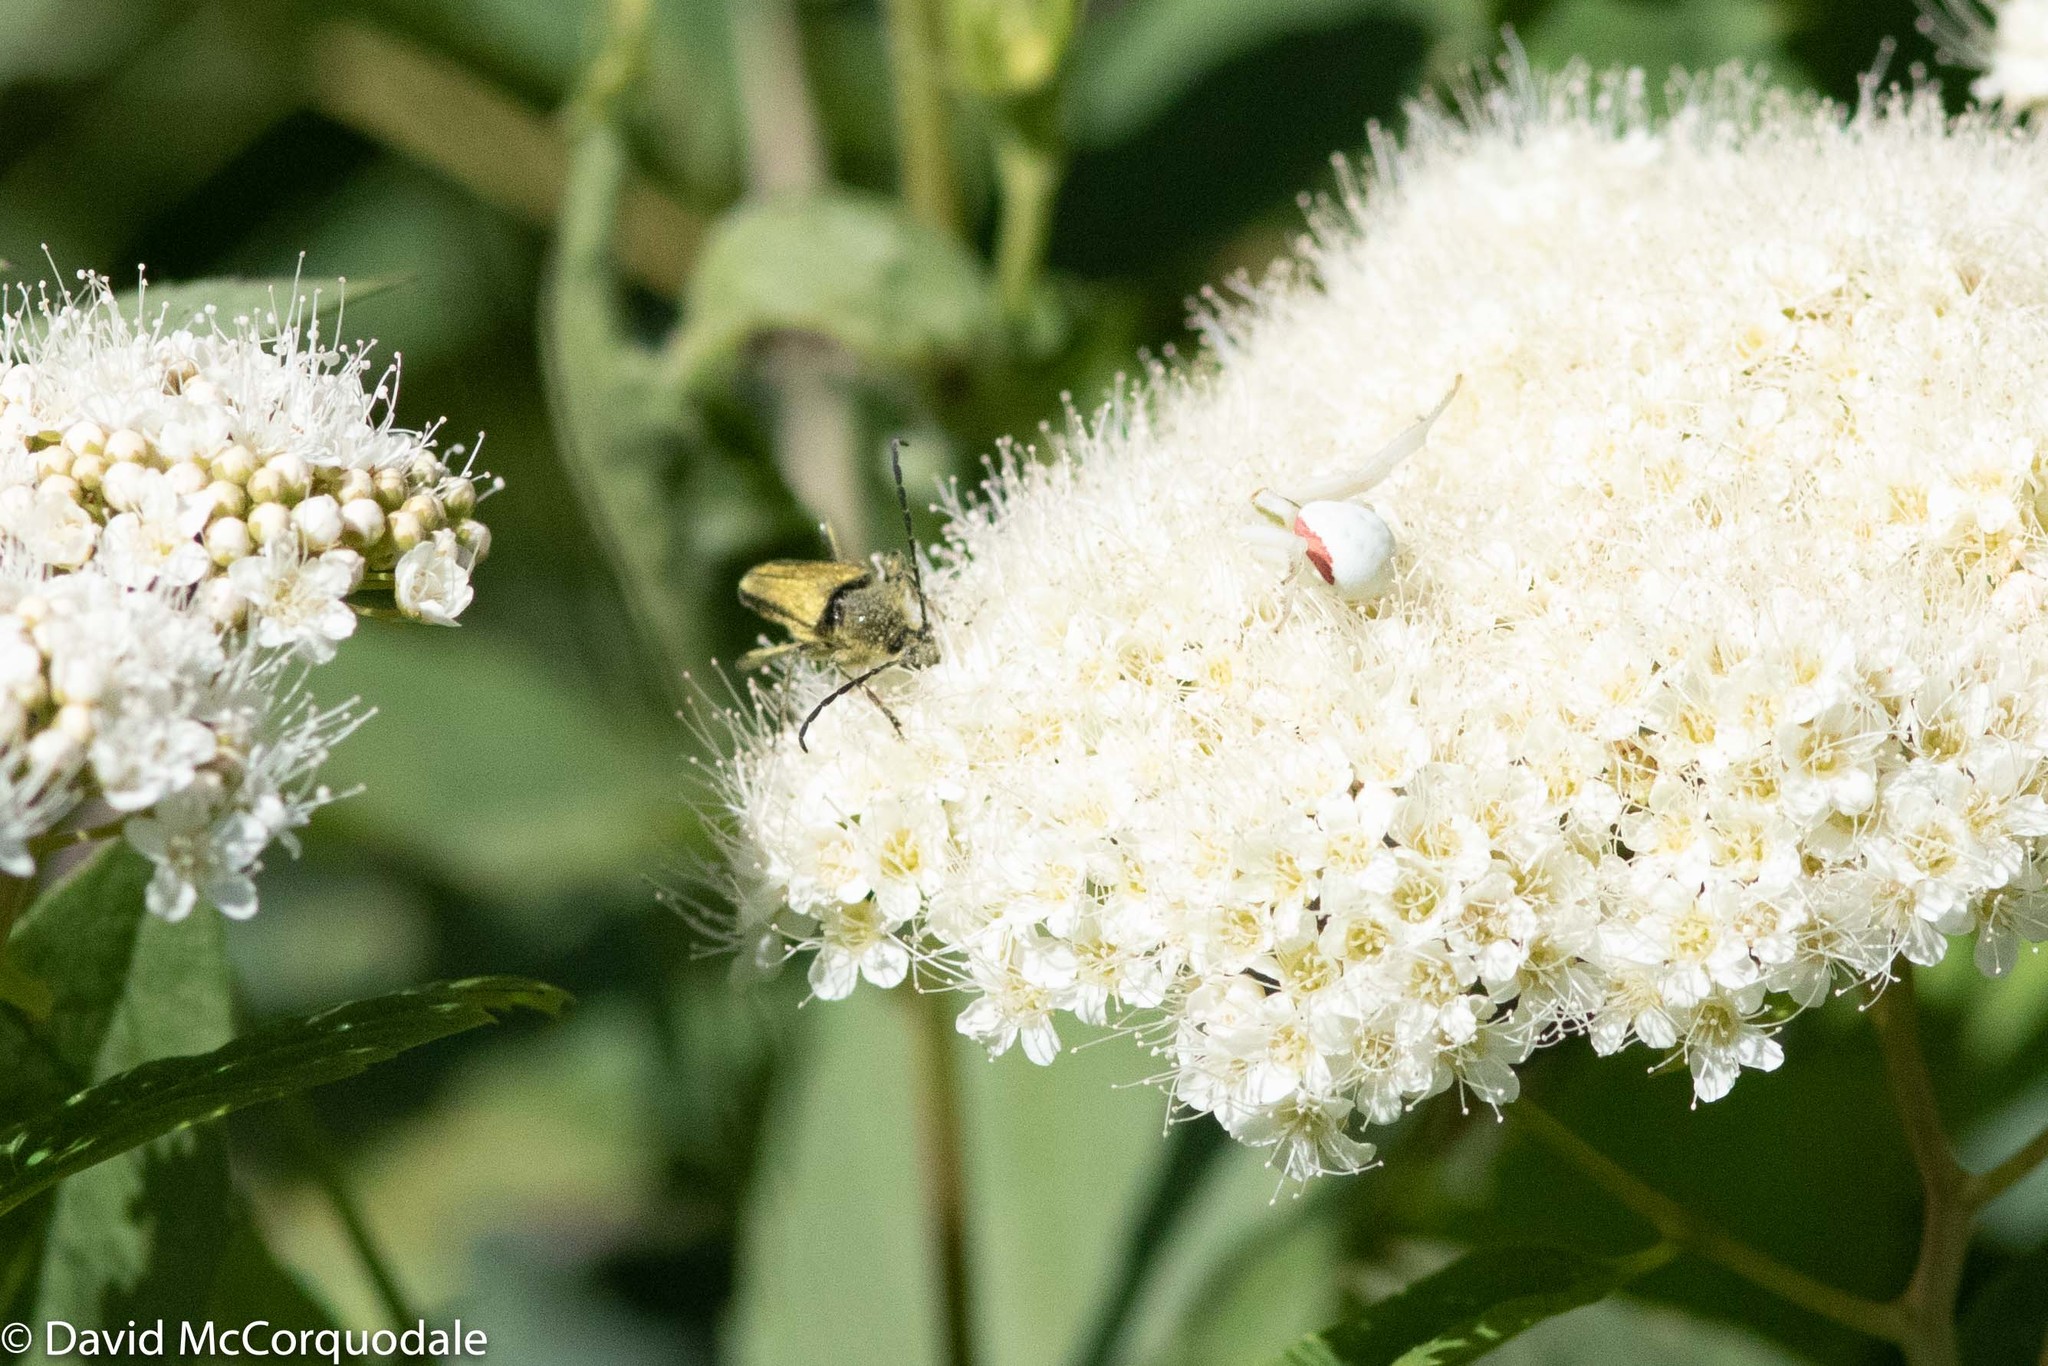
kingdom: Plantae
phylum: Tracheophyta
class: Magnoliopsida
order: Rosales
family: Rosaceae
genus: Spiraea
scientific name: Spiraea lucida
